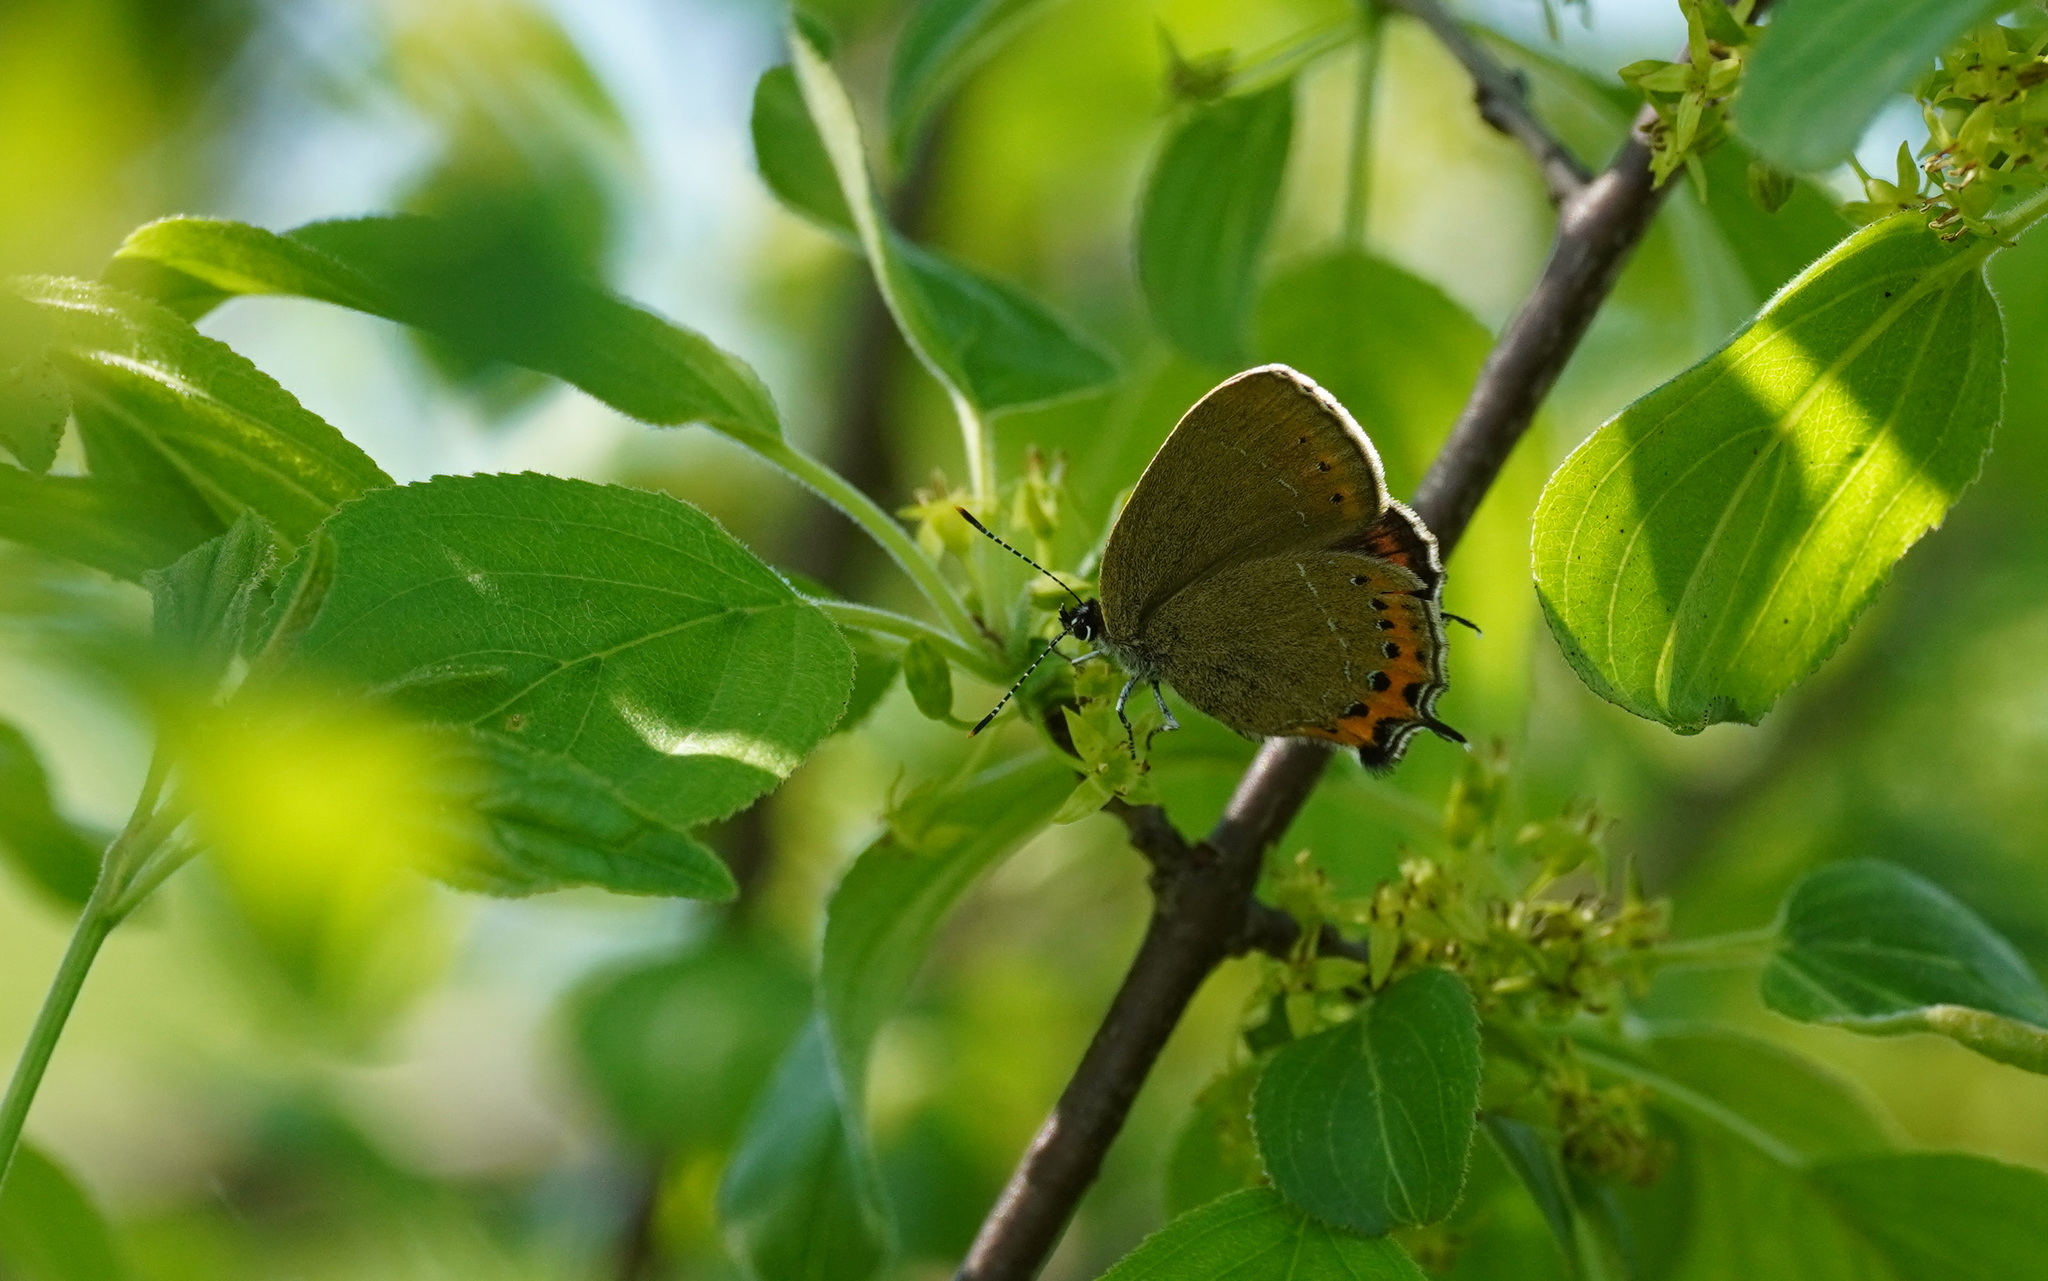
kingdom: Animalia
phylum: Arthropoda
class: Insecta
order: Lepidoptera
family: Lycaenidae
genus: Fixsenia
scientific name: Fixsenia pruni
